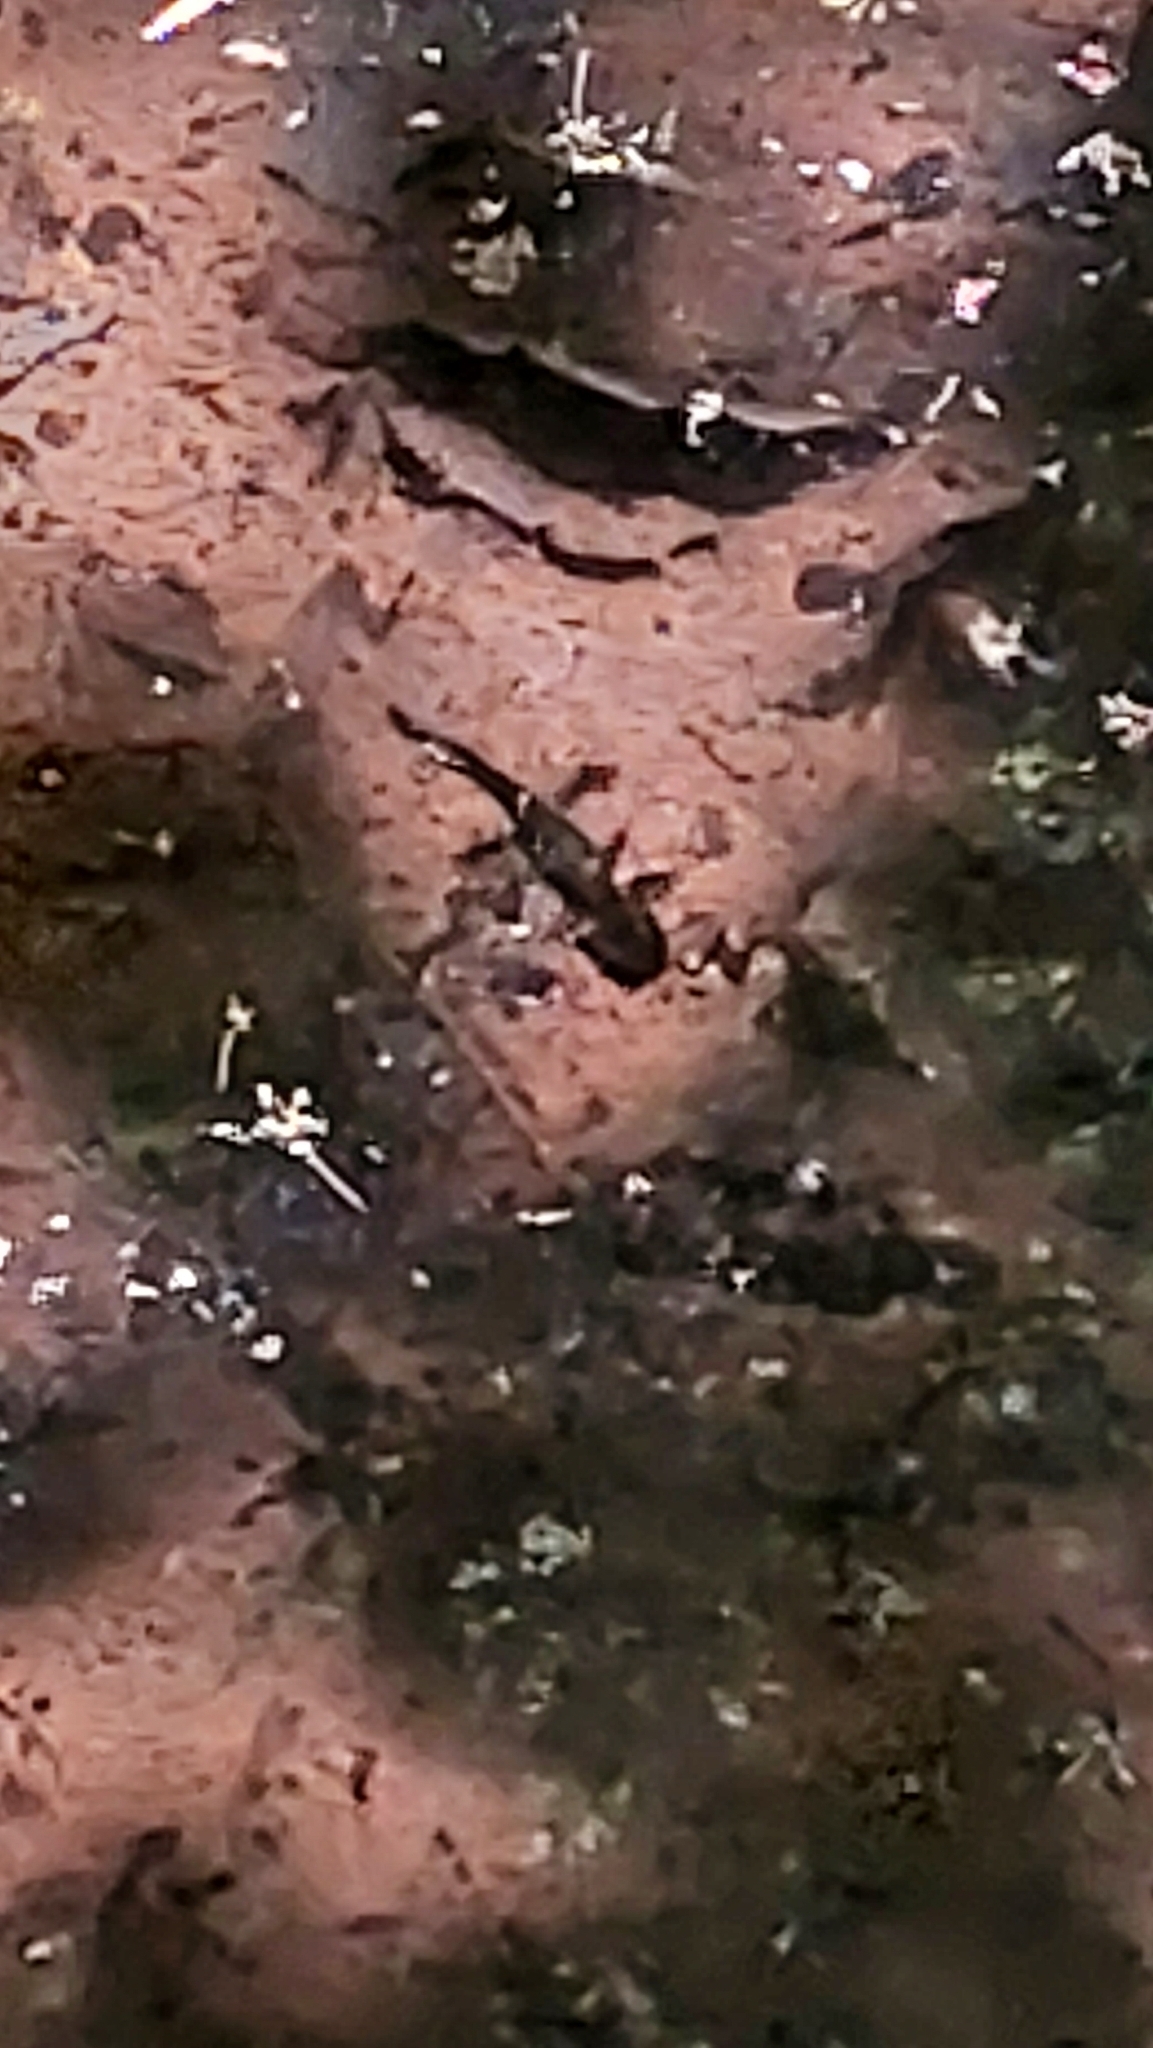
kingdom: Animalia
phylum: Chordata
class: Amphibia
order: Caudata
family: Salamandridae
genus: Salamandra
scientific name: Salamandra salamandra
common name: Fire salamander
